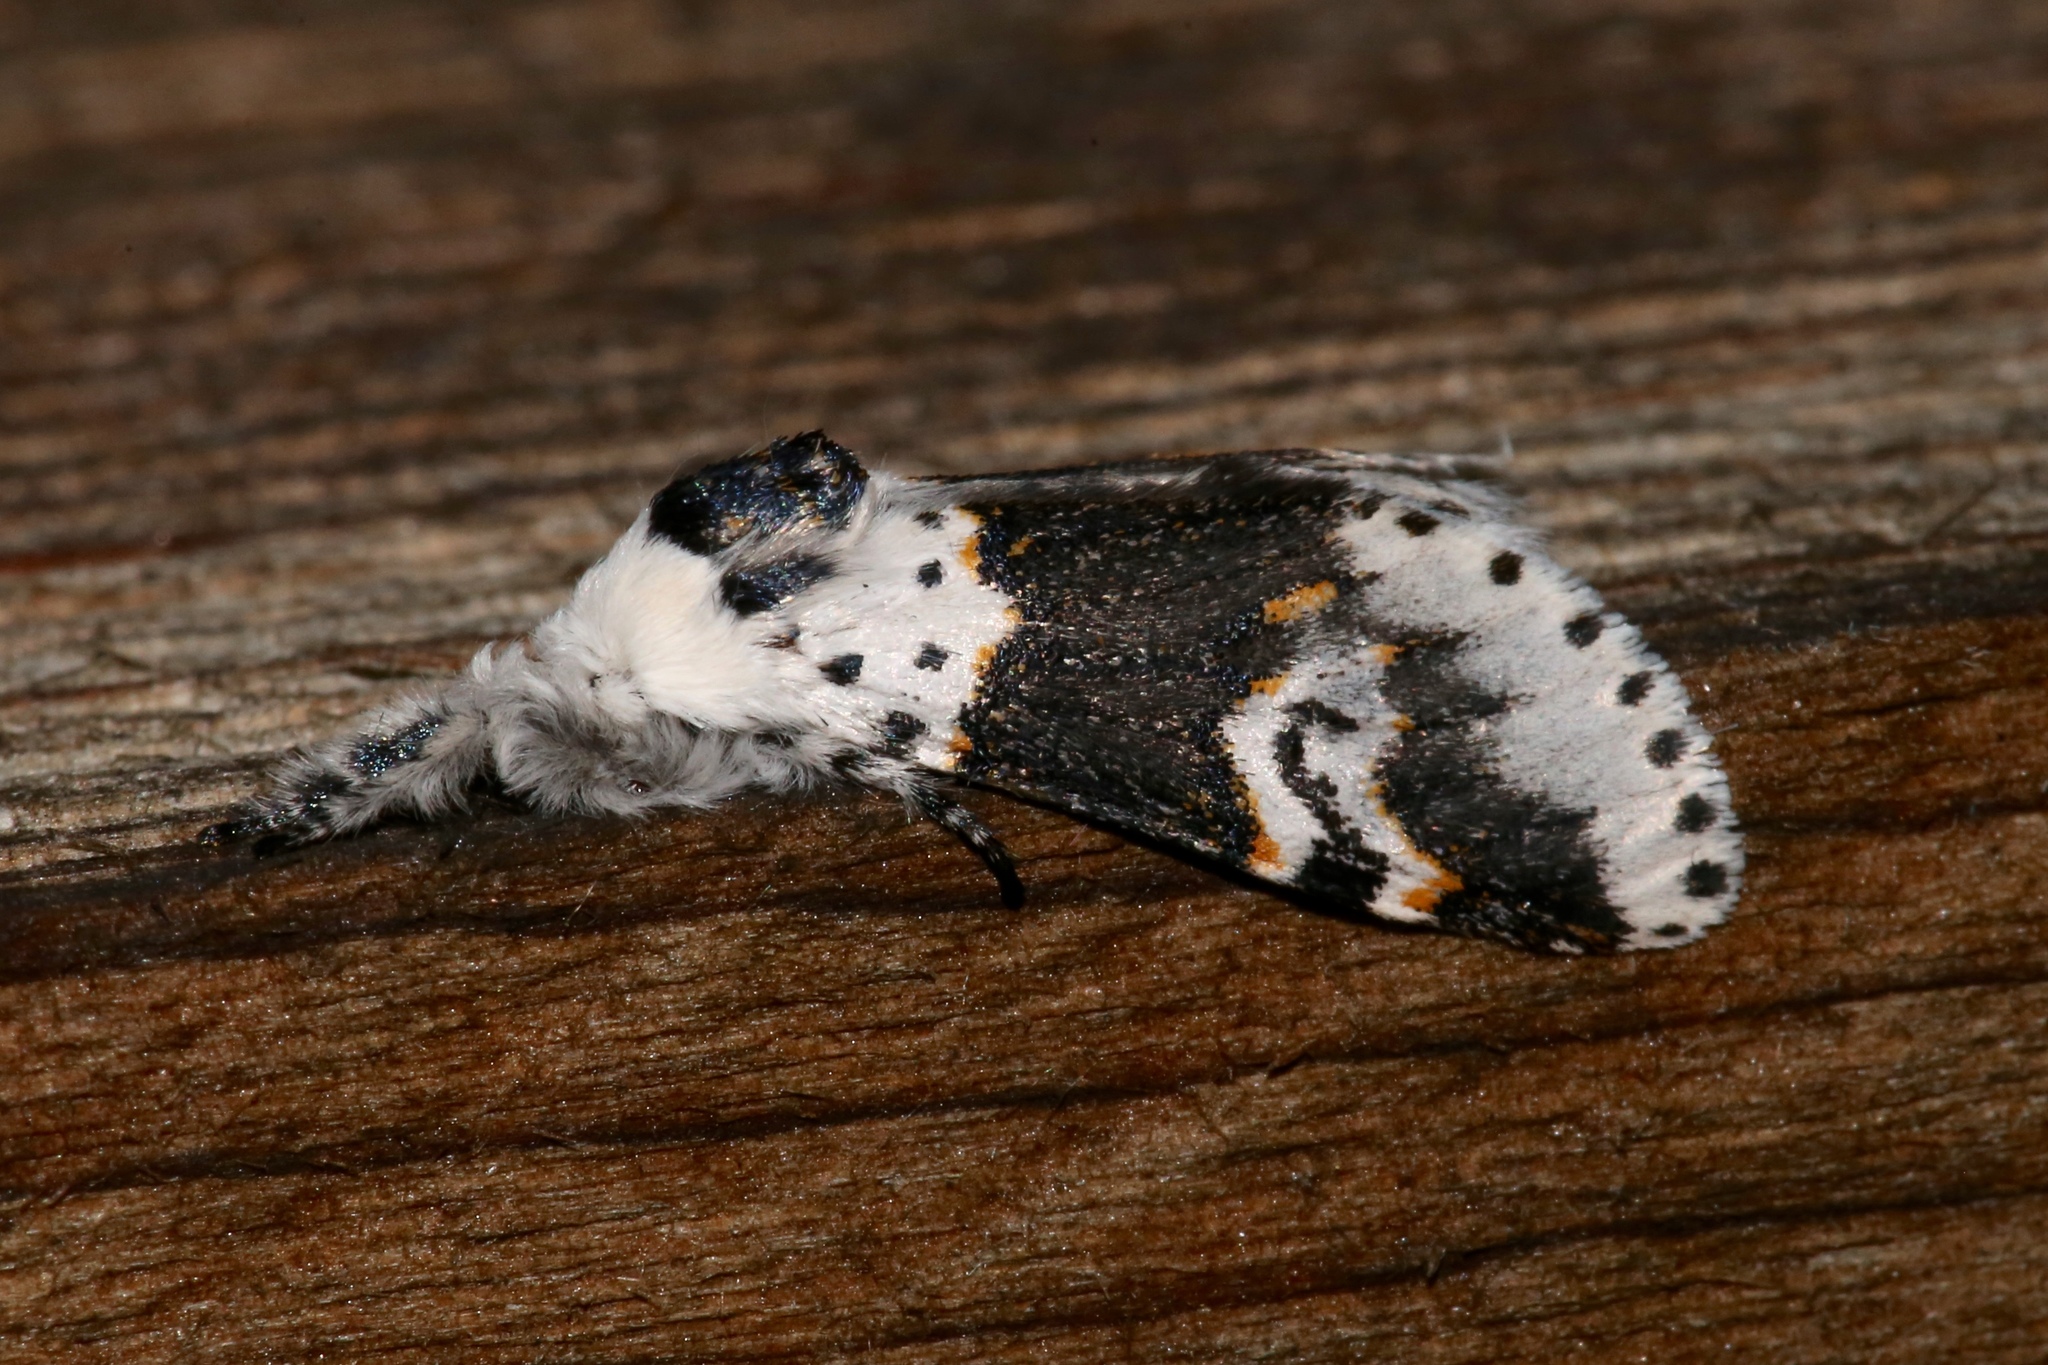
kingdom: Animalia
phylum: Arthropoda
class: Insecta
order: Lepidoptera
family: Notodontidae
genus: Furcula
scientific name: Furcula borealis
